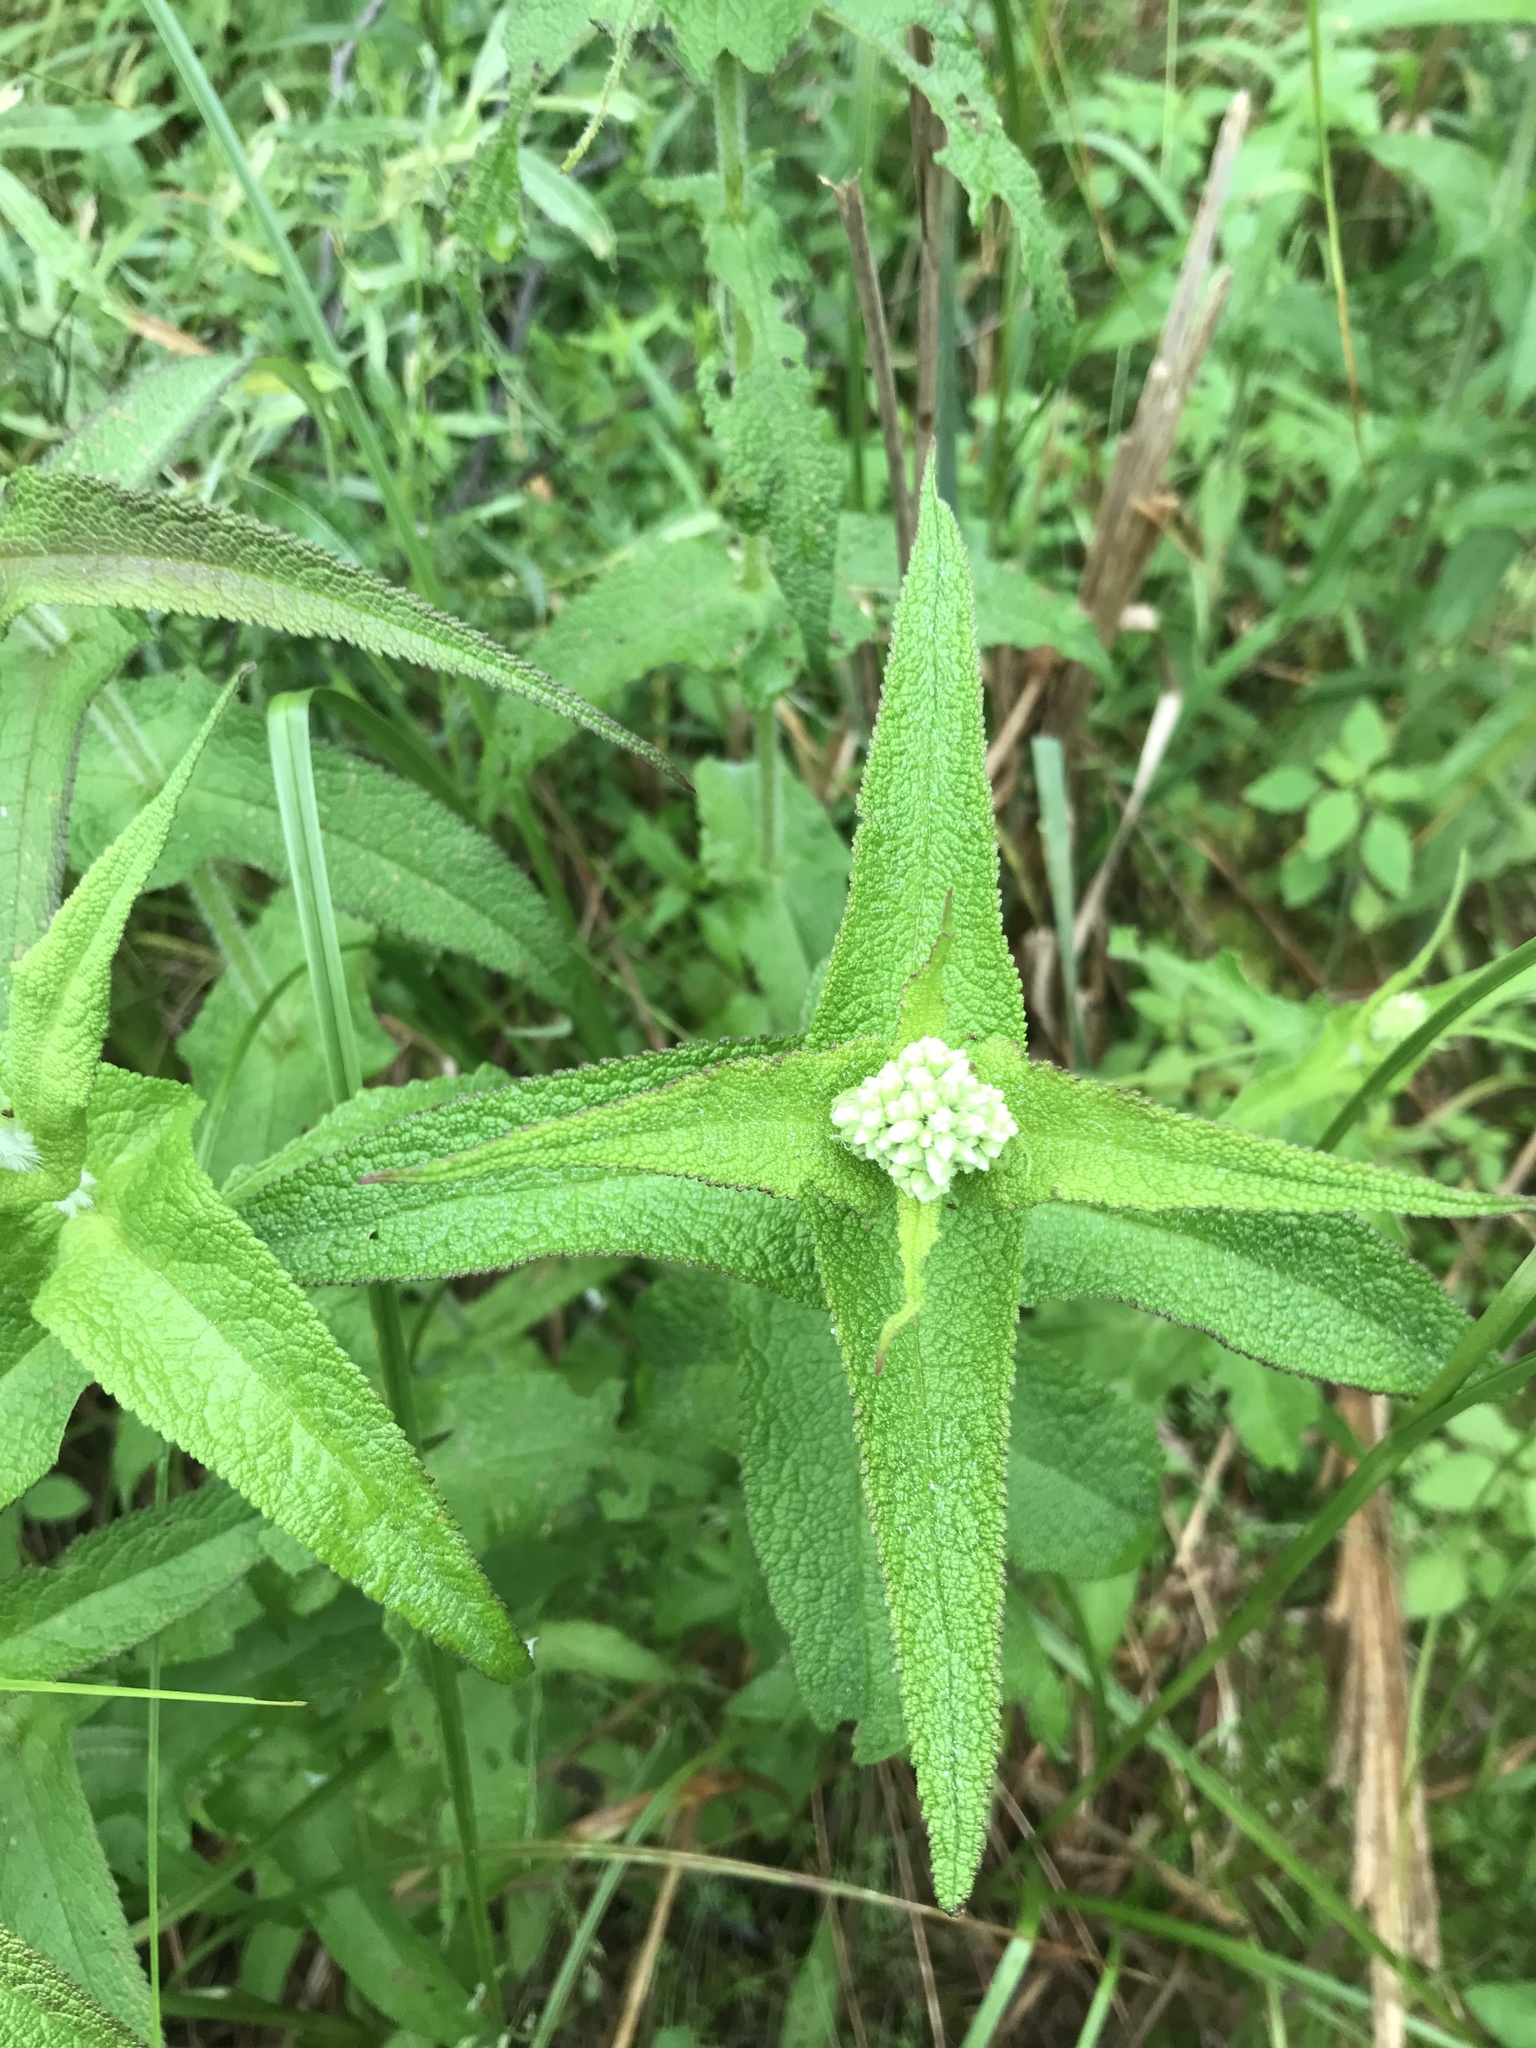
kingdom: Plantae
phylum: Tracheophyta
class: Magnoliopsida
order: Asterales
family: Asteraceae
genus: Eupatorium
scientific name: Eupatorium perfoliatum
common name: Boneset
